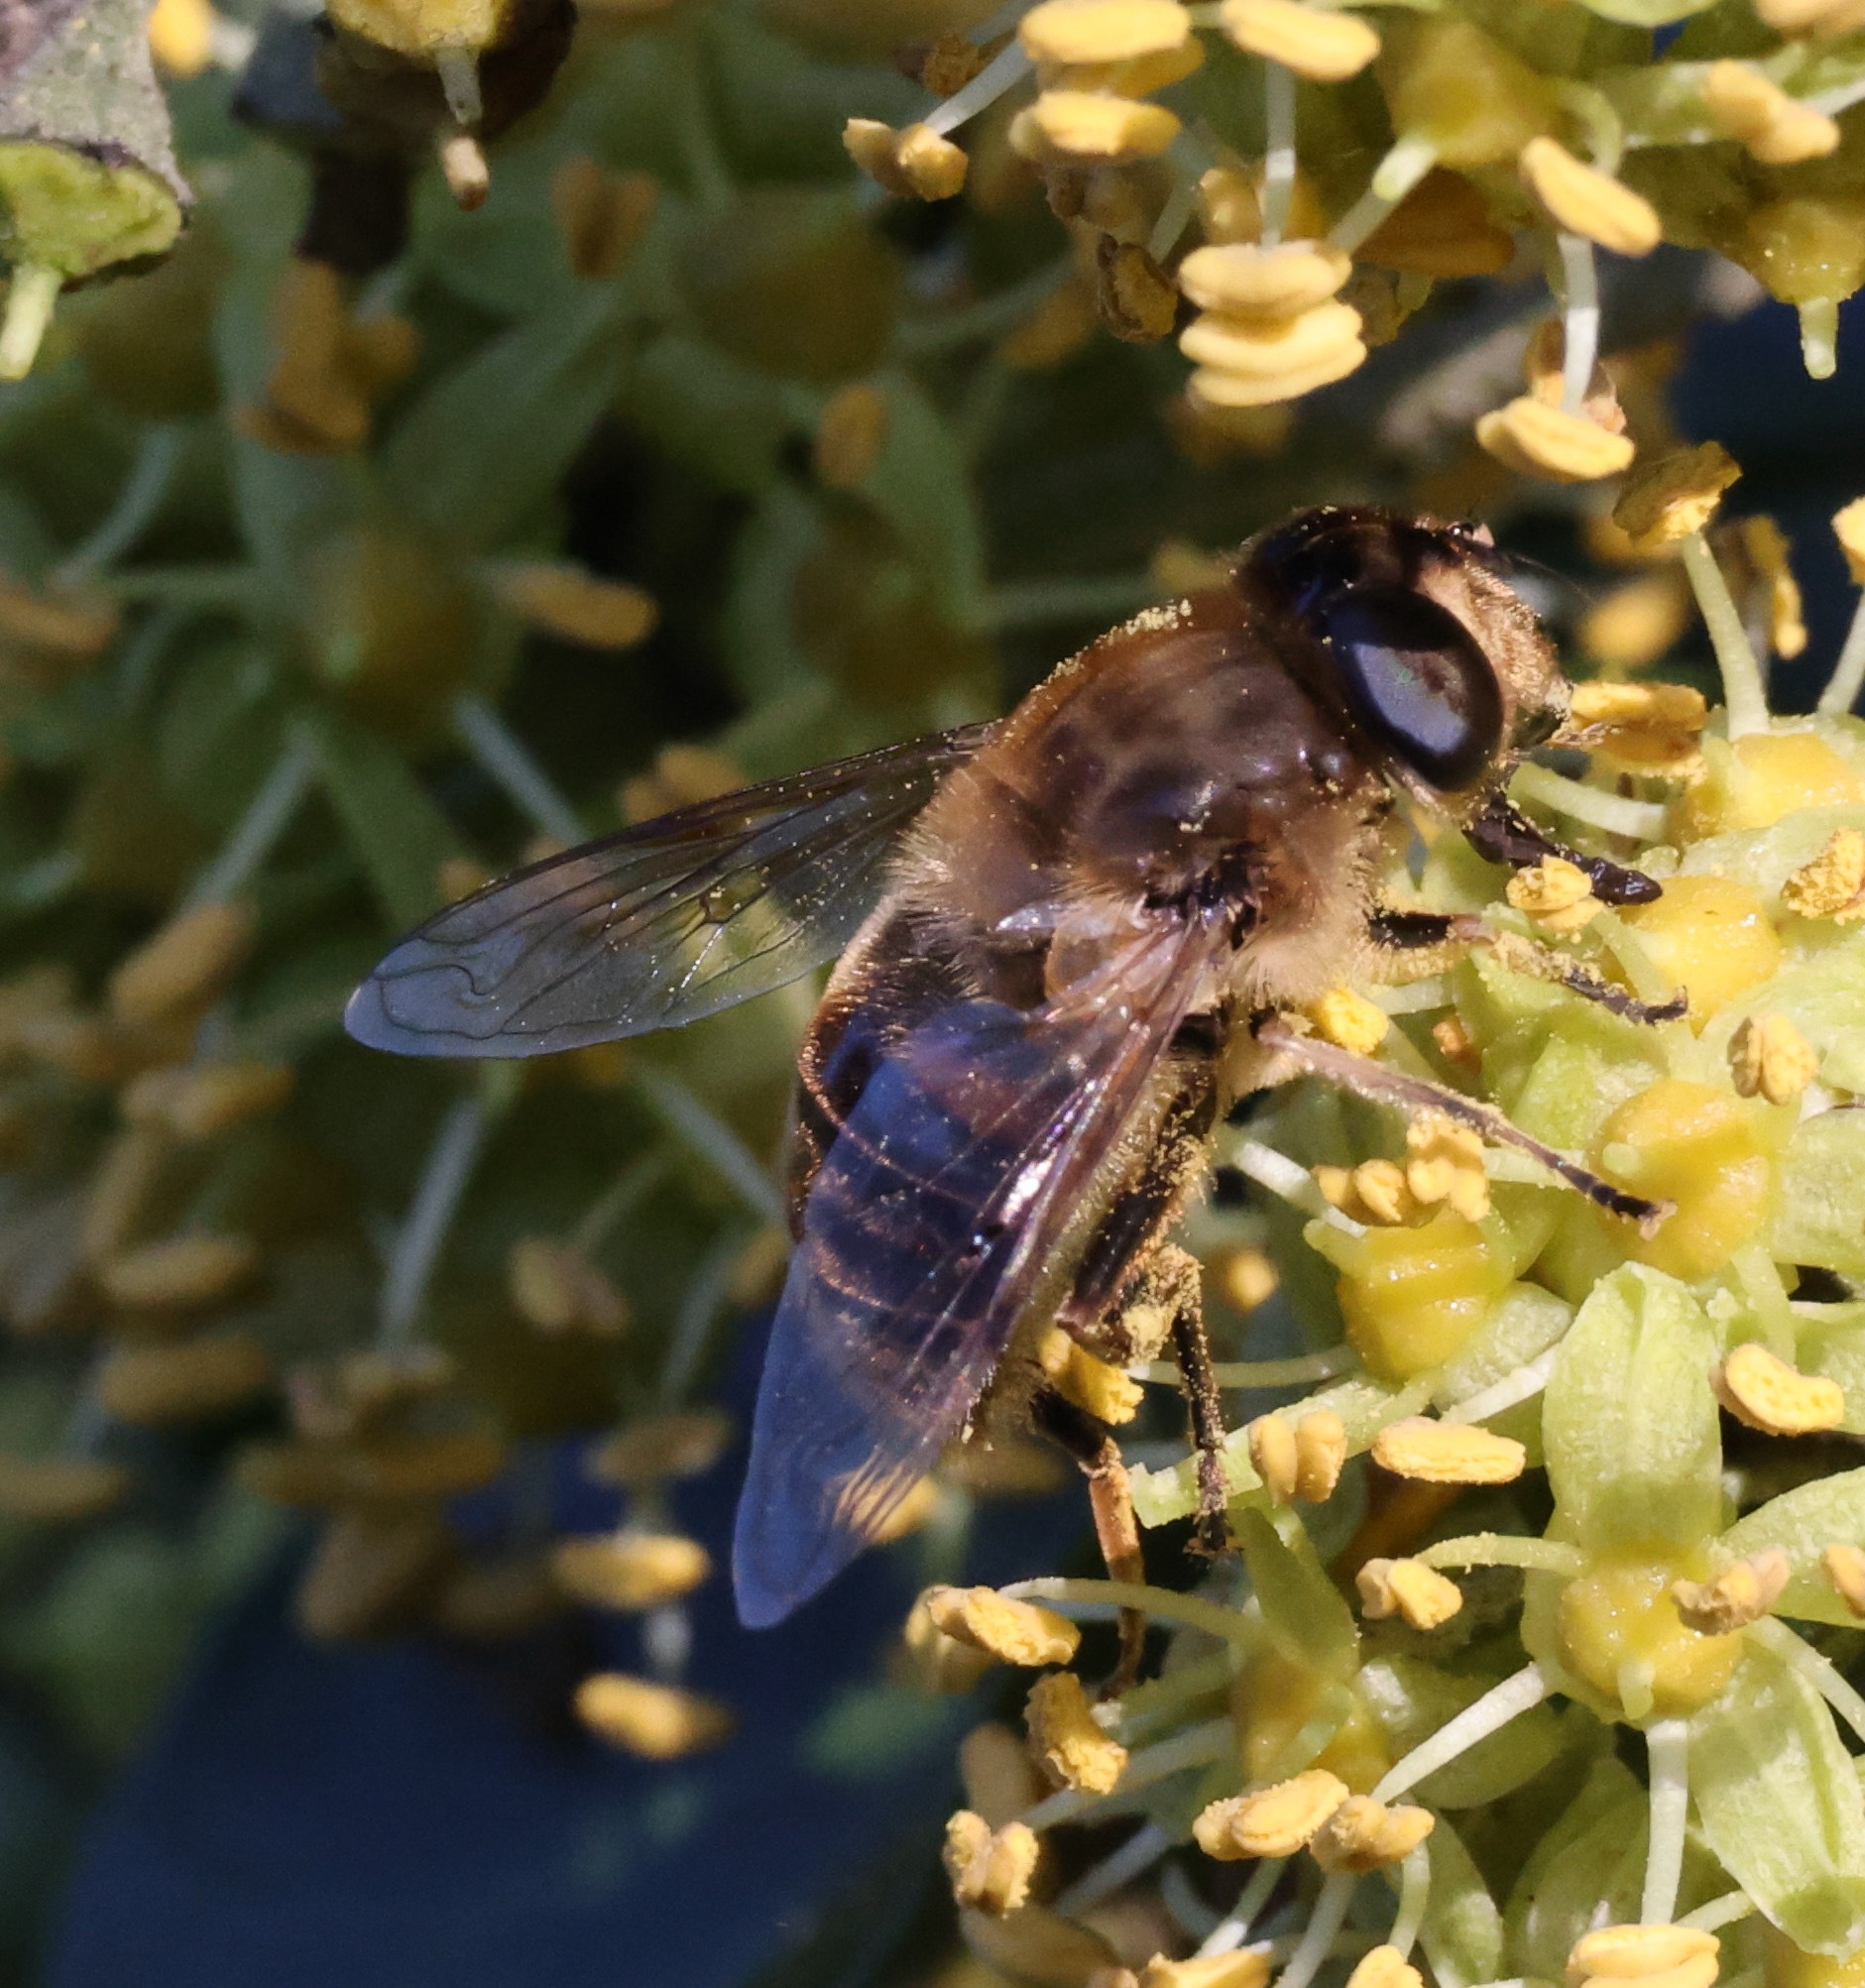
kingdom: Animalia
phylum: Arthropoda
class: Insecta
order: Diptera
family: Syrphidae
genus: Eristalis
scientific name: Eristalis tenax
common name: Drone fly
